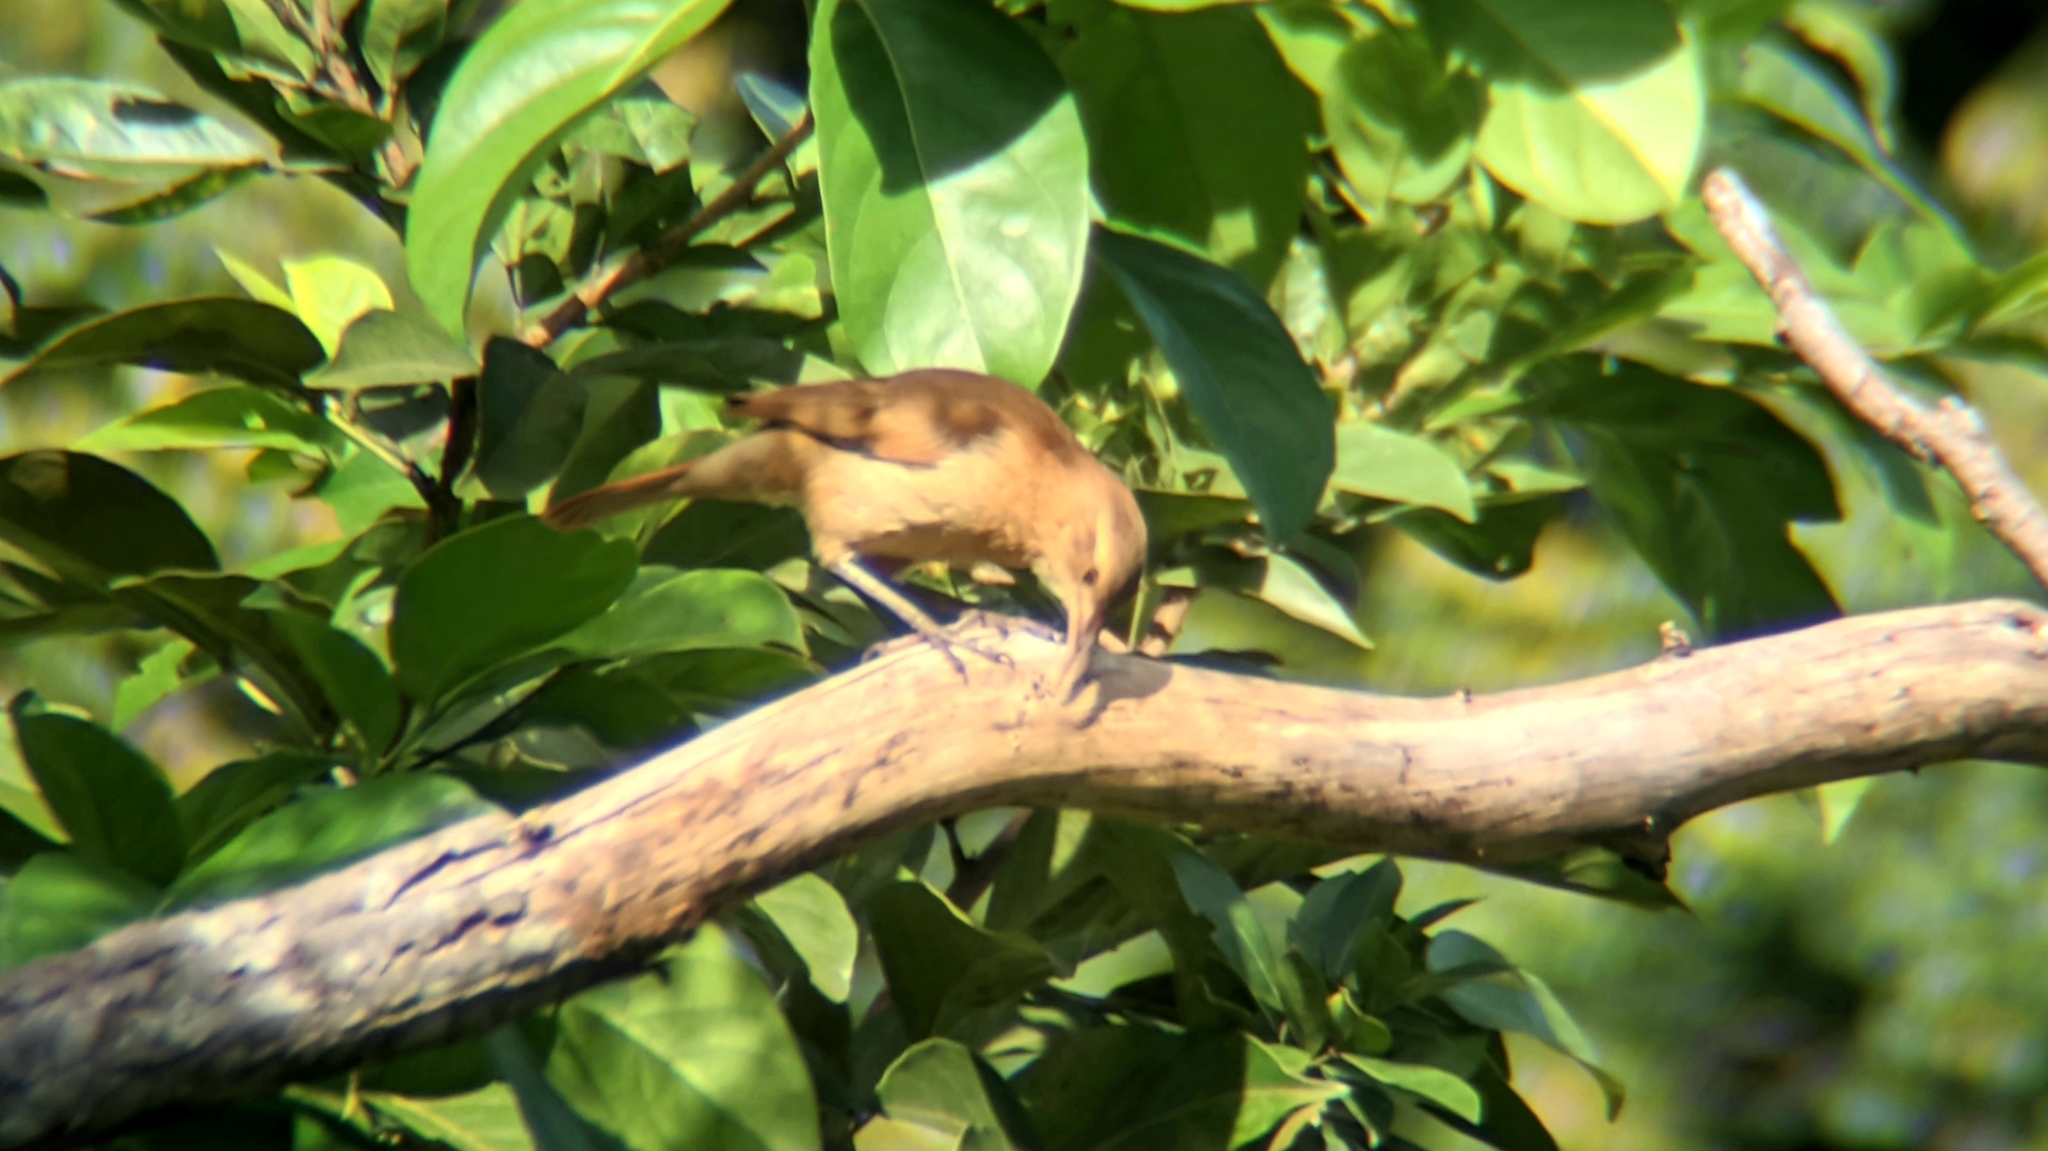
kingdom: Animalia
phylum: Chordata
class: Aves
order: Passeriformes
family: Furnariidae
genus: Furnarius
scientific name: Furnarius rufus
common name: Rufous hornero
